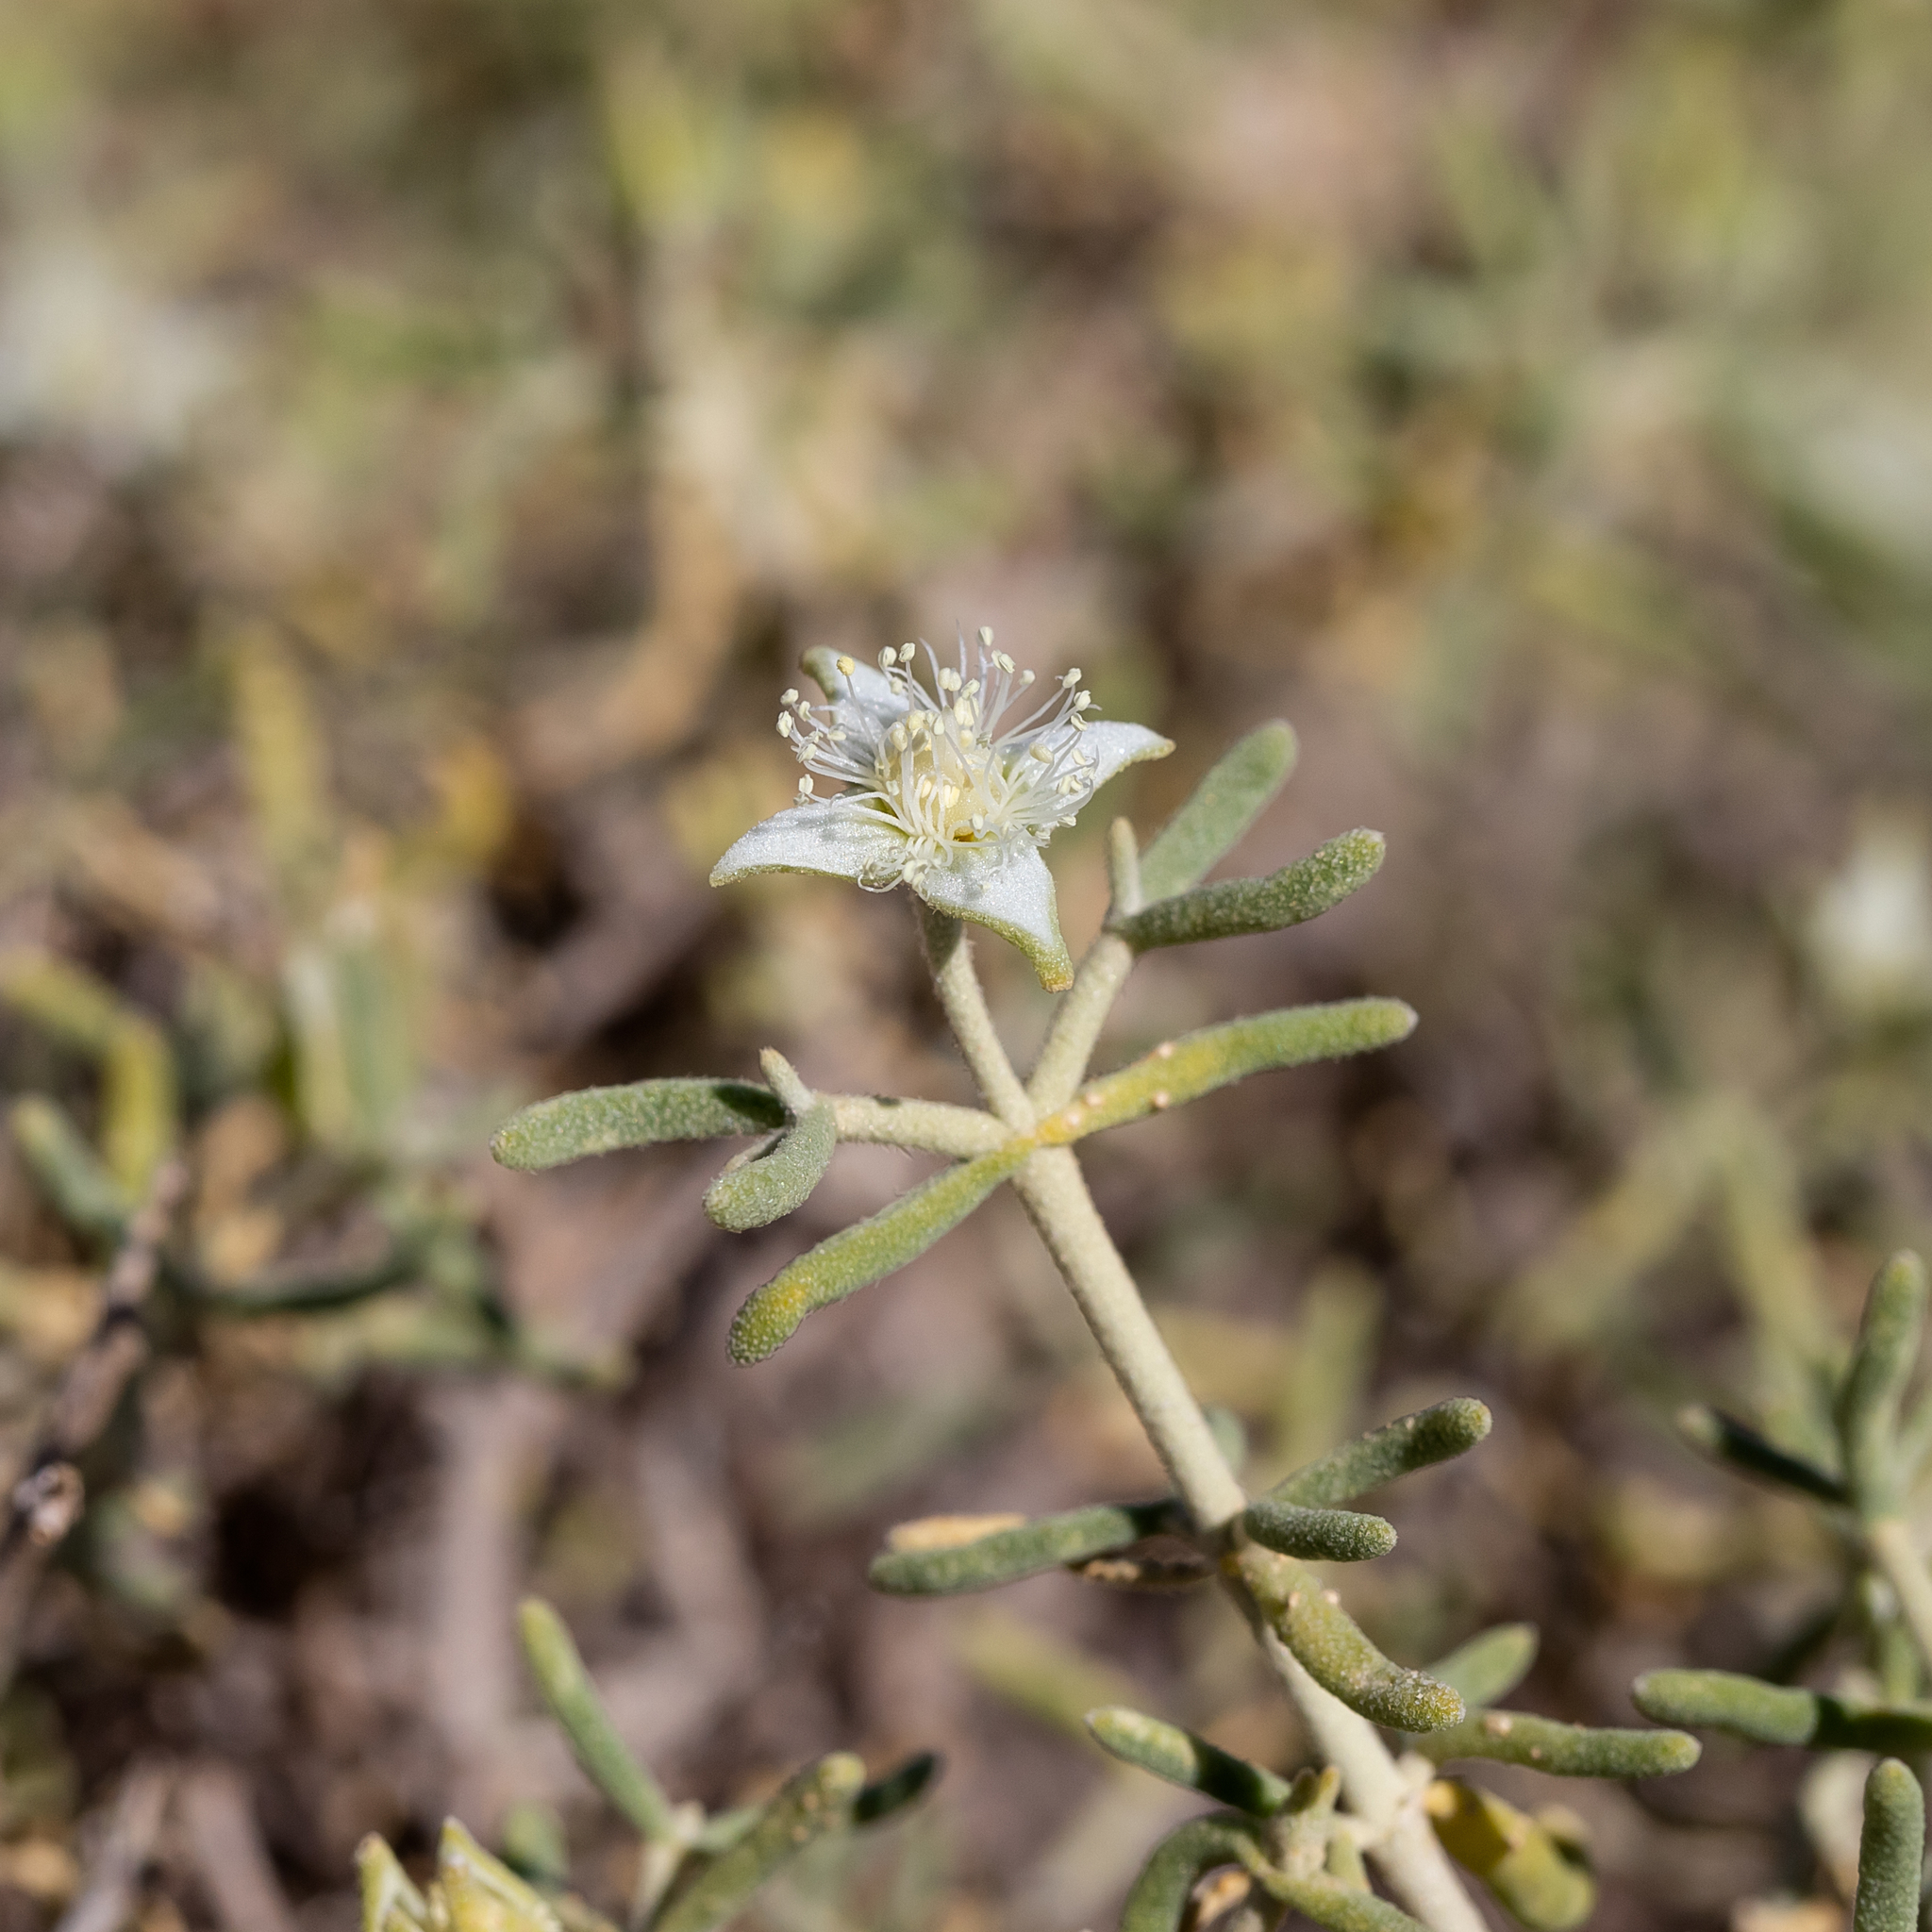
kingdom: Plantae
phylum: Tracheophyta
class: Magnoliopsida
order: Caryophyllales
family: Aizoaceae
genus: Gunniopsis
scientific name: Gunniopsis quadrifida
